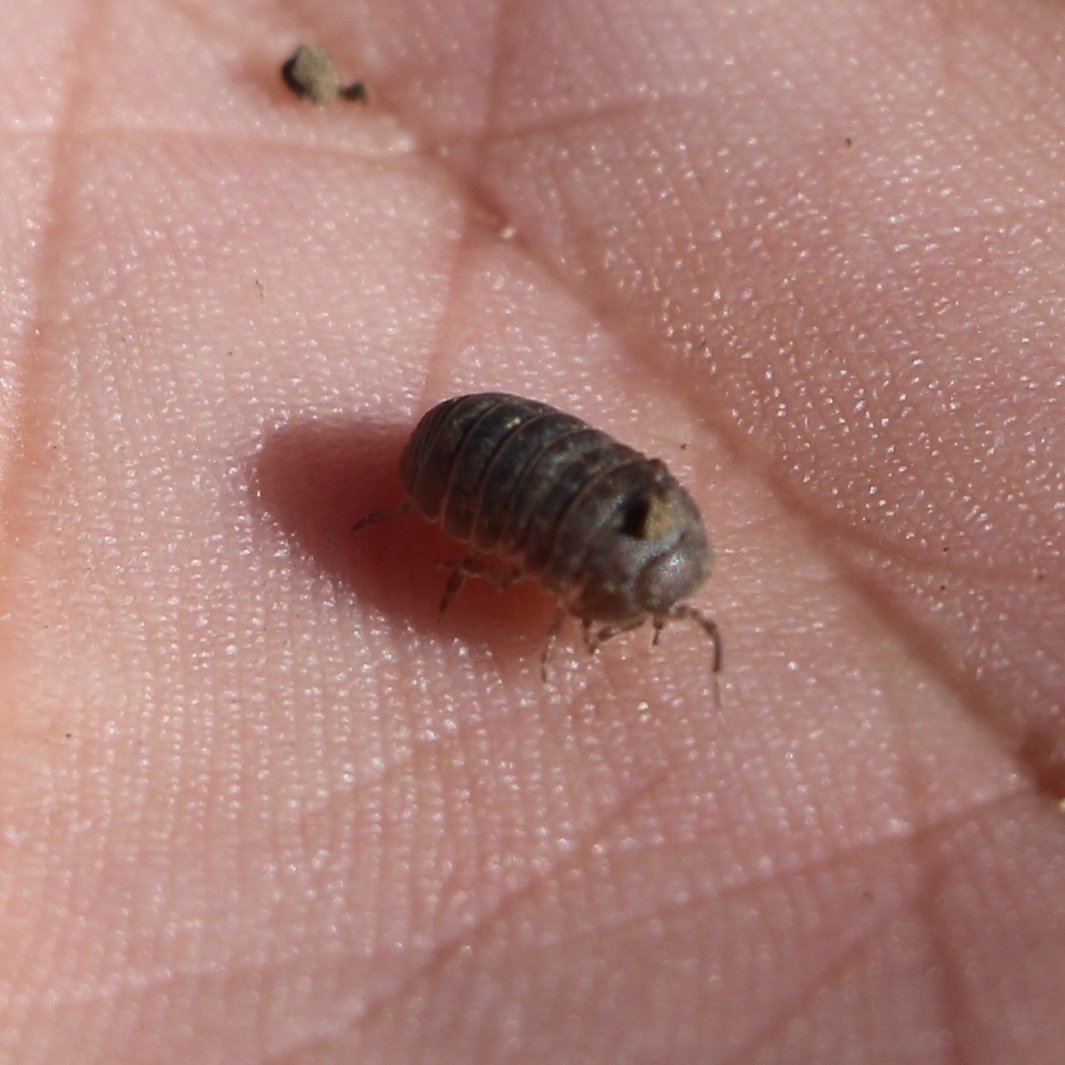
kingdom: Animalia
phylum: Arthropoda
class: Malacostraca
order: Isopoda
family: Armadillidiidae
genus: Armadillidium
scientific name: Armadillidium vulgare
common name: Common pill woodlouse
